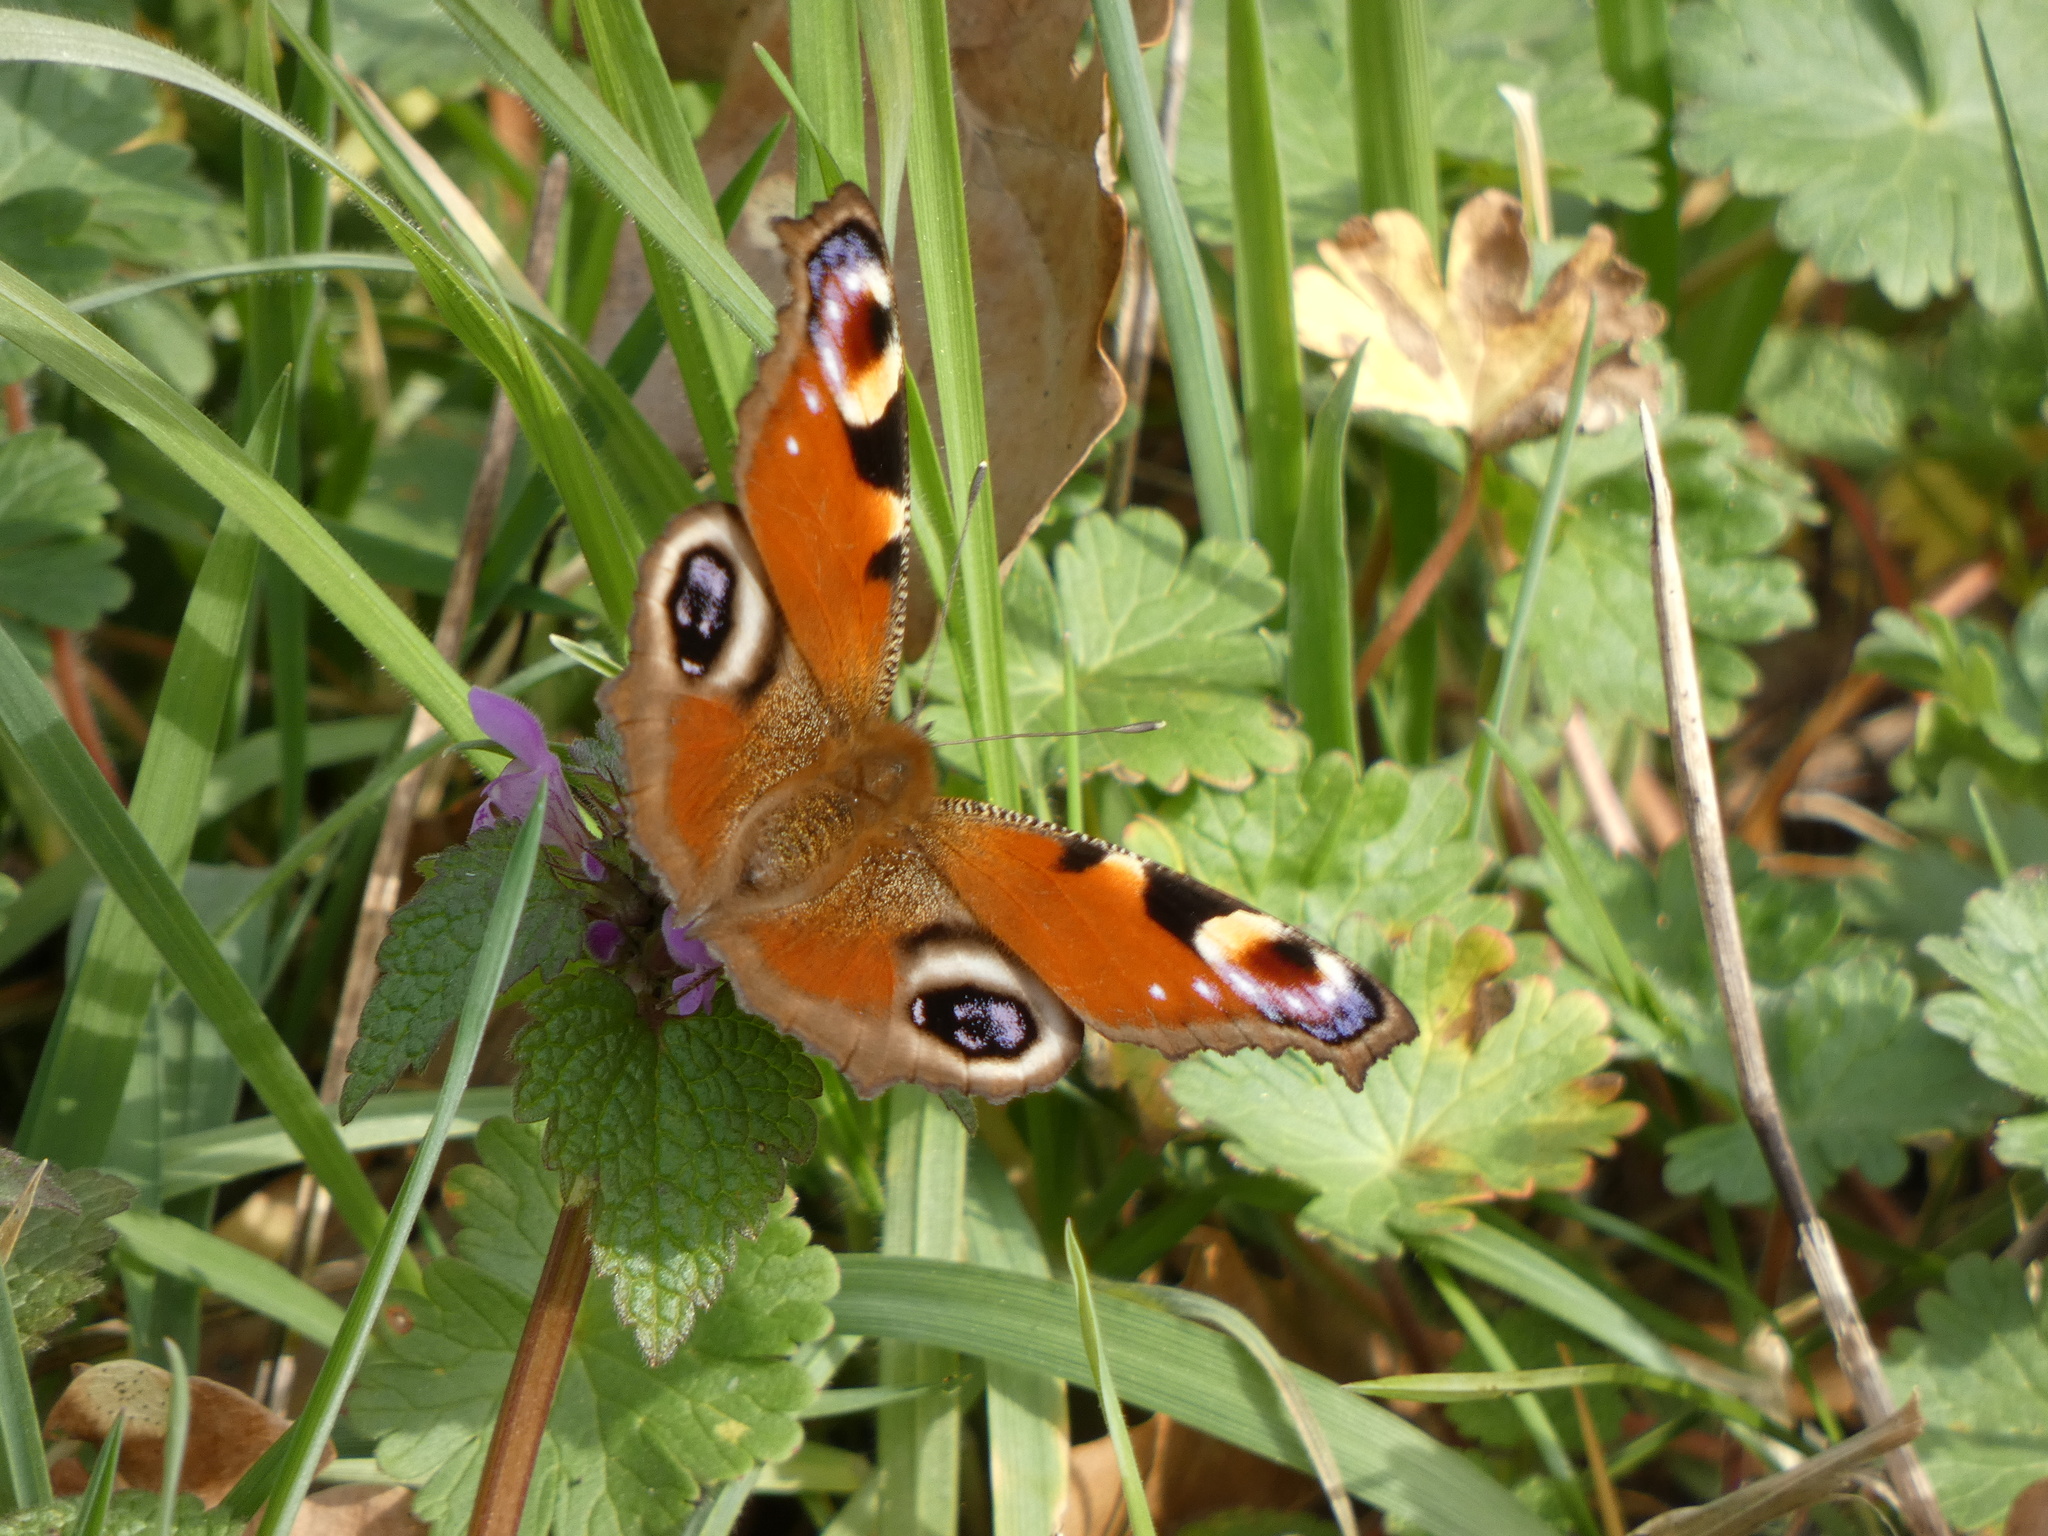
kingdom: Animalia
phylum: Arthropoda
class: Insecta
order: Lepidoptera
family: Nymphalidae
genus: Aglais
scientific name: Aglais io
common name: Peacock
